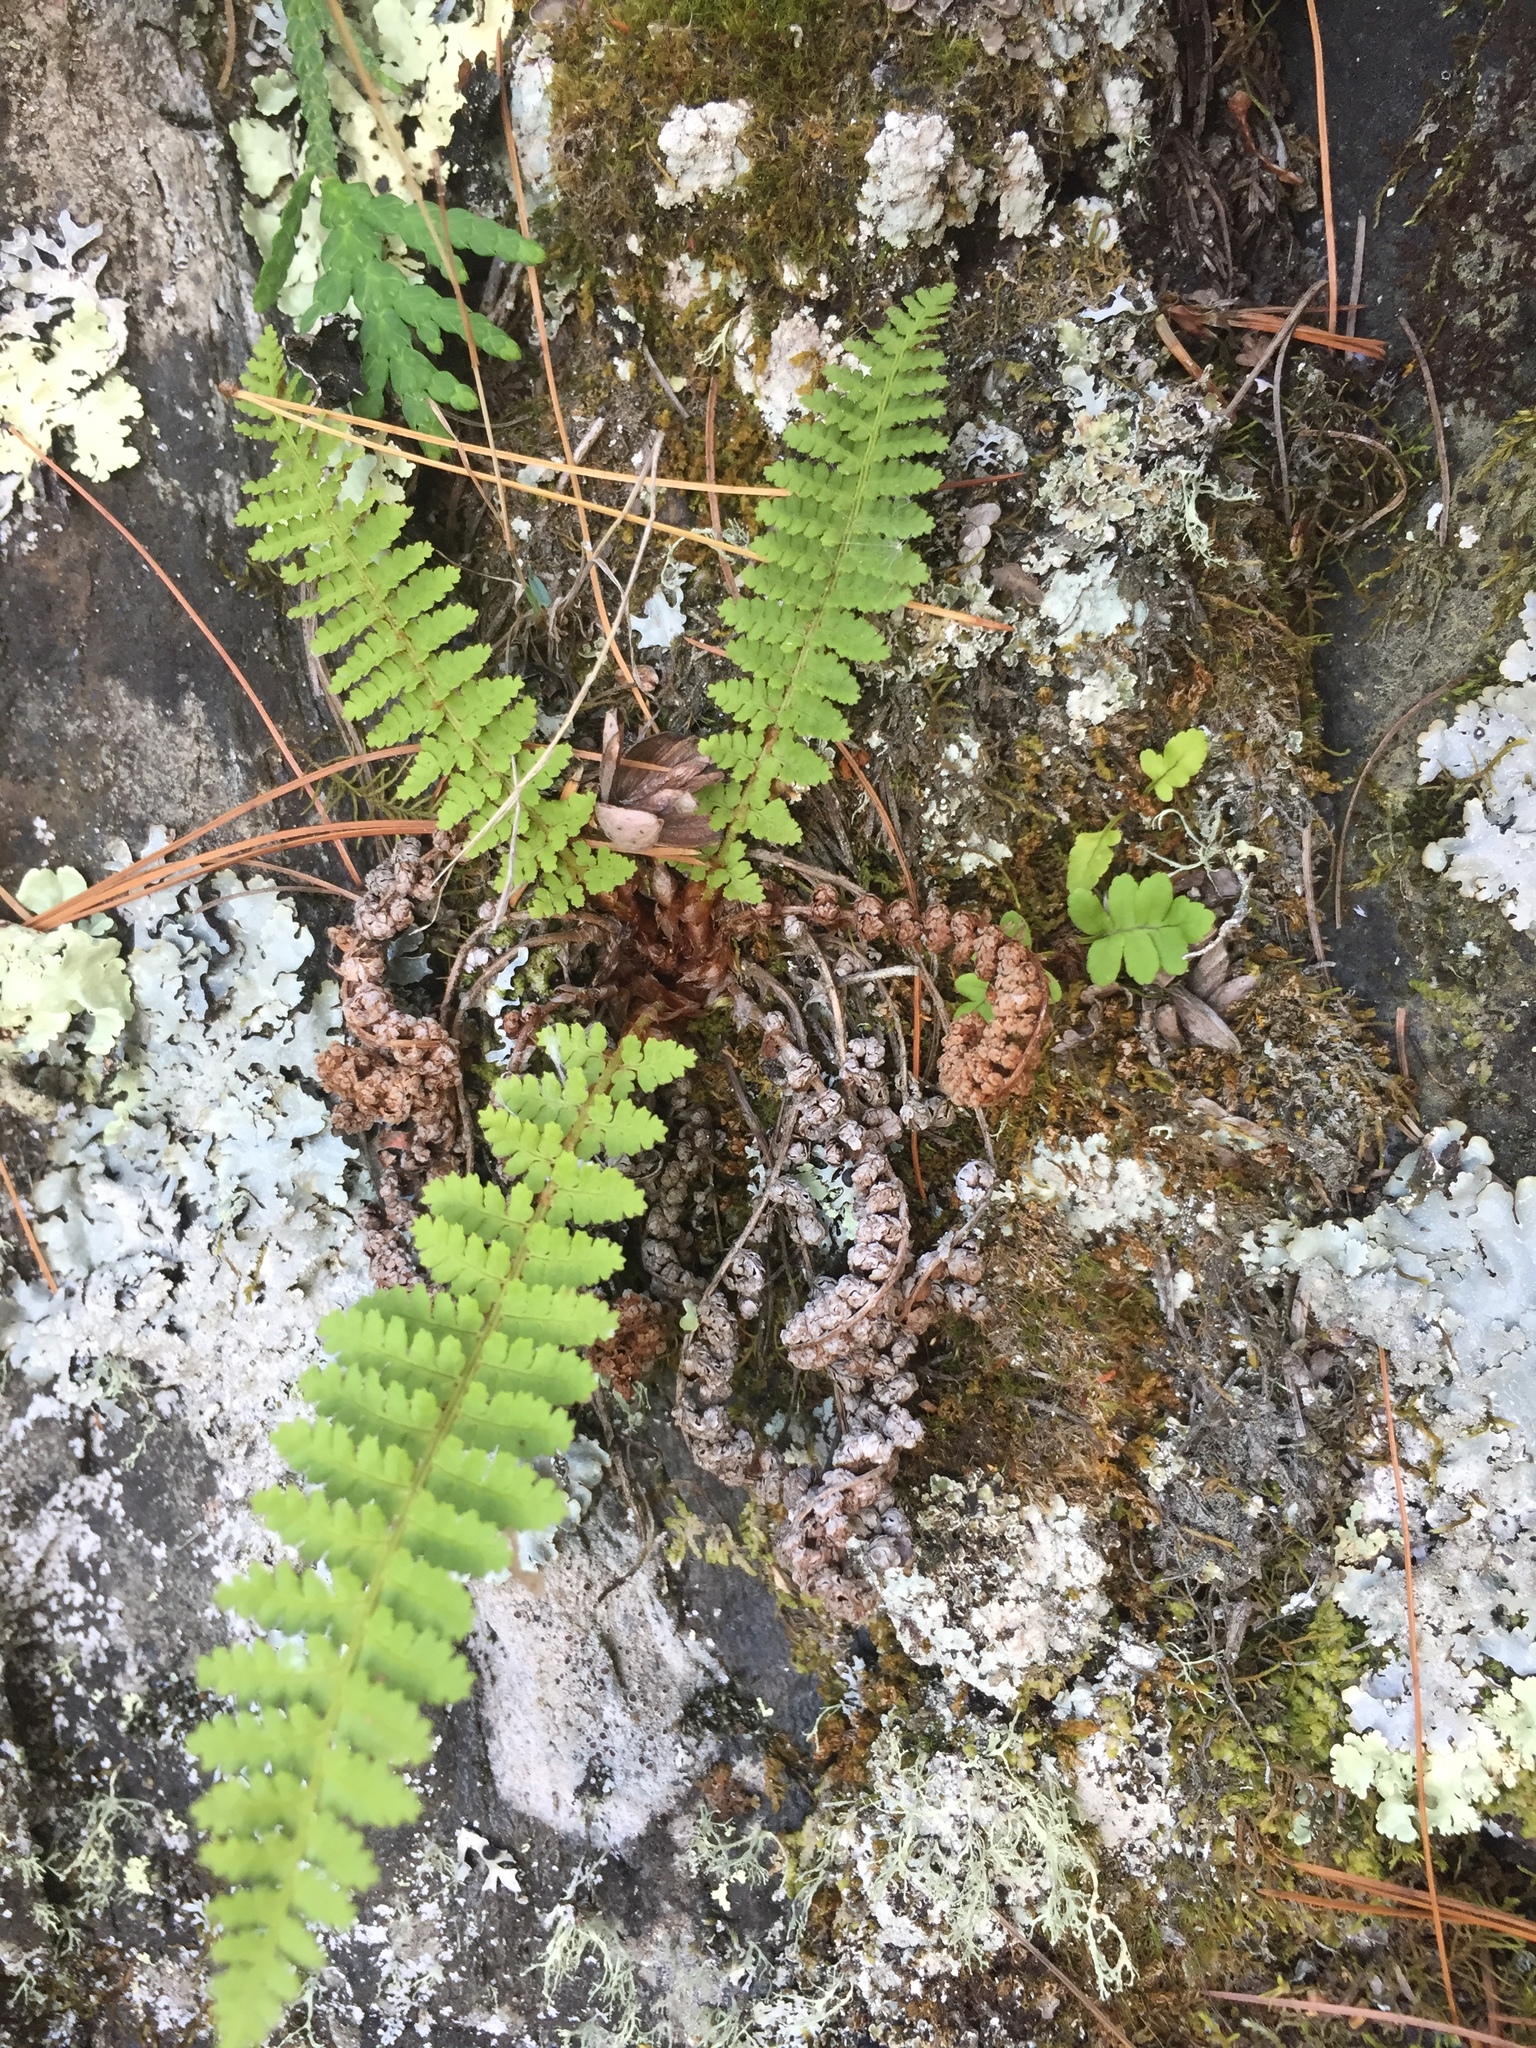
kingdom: Plantae
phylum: Tracheophyta
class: Polypodiopsida
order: Polypodiales
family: Dryopteridaceae
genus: Dryopteris
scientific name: Dryopteris fragrans
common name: Fragrant wood fern
